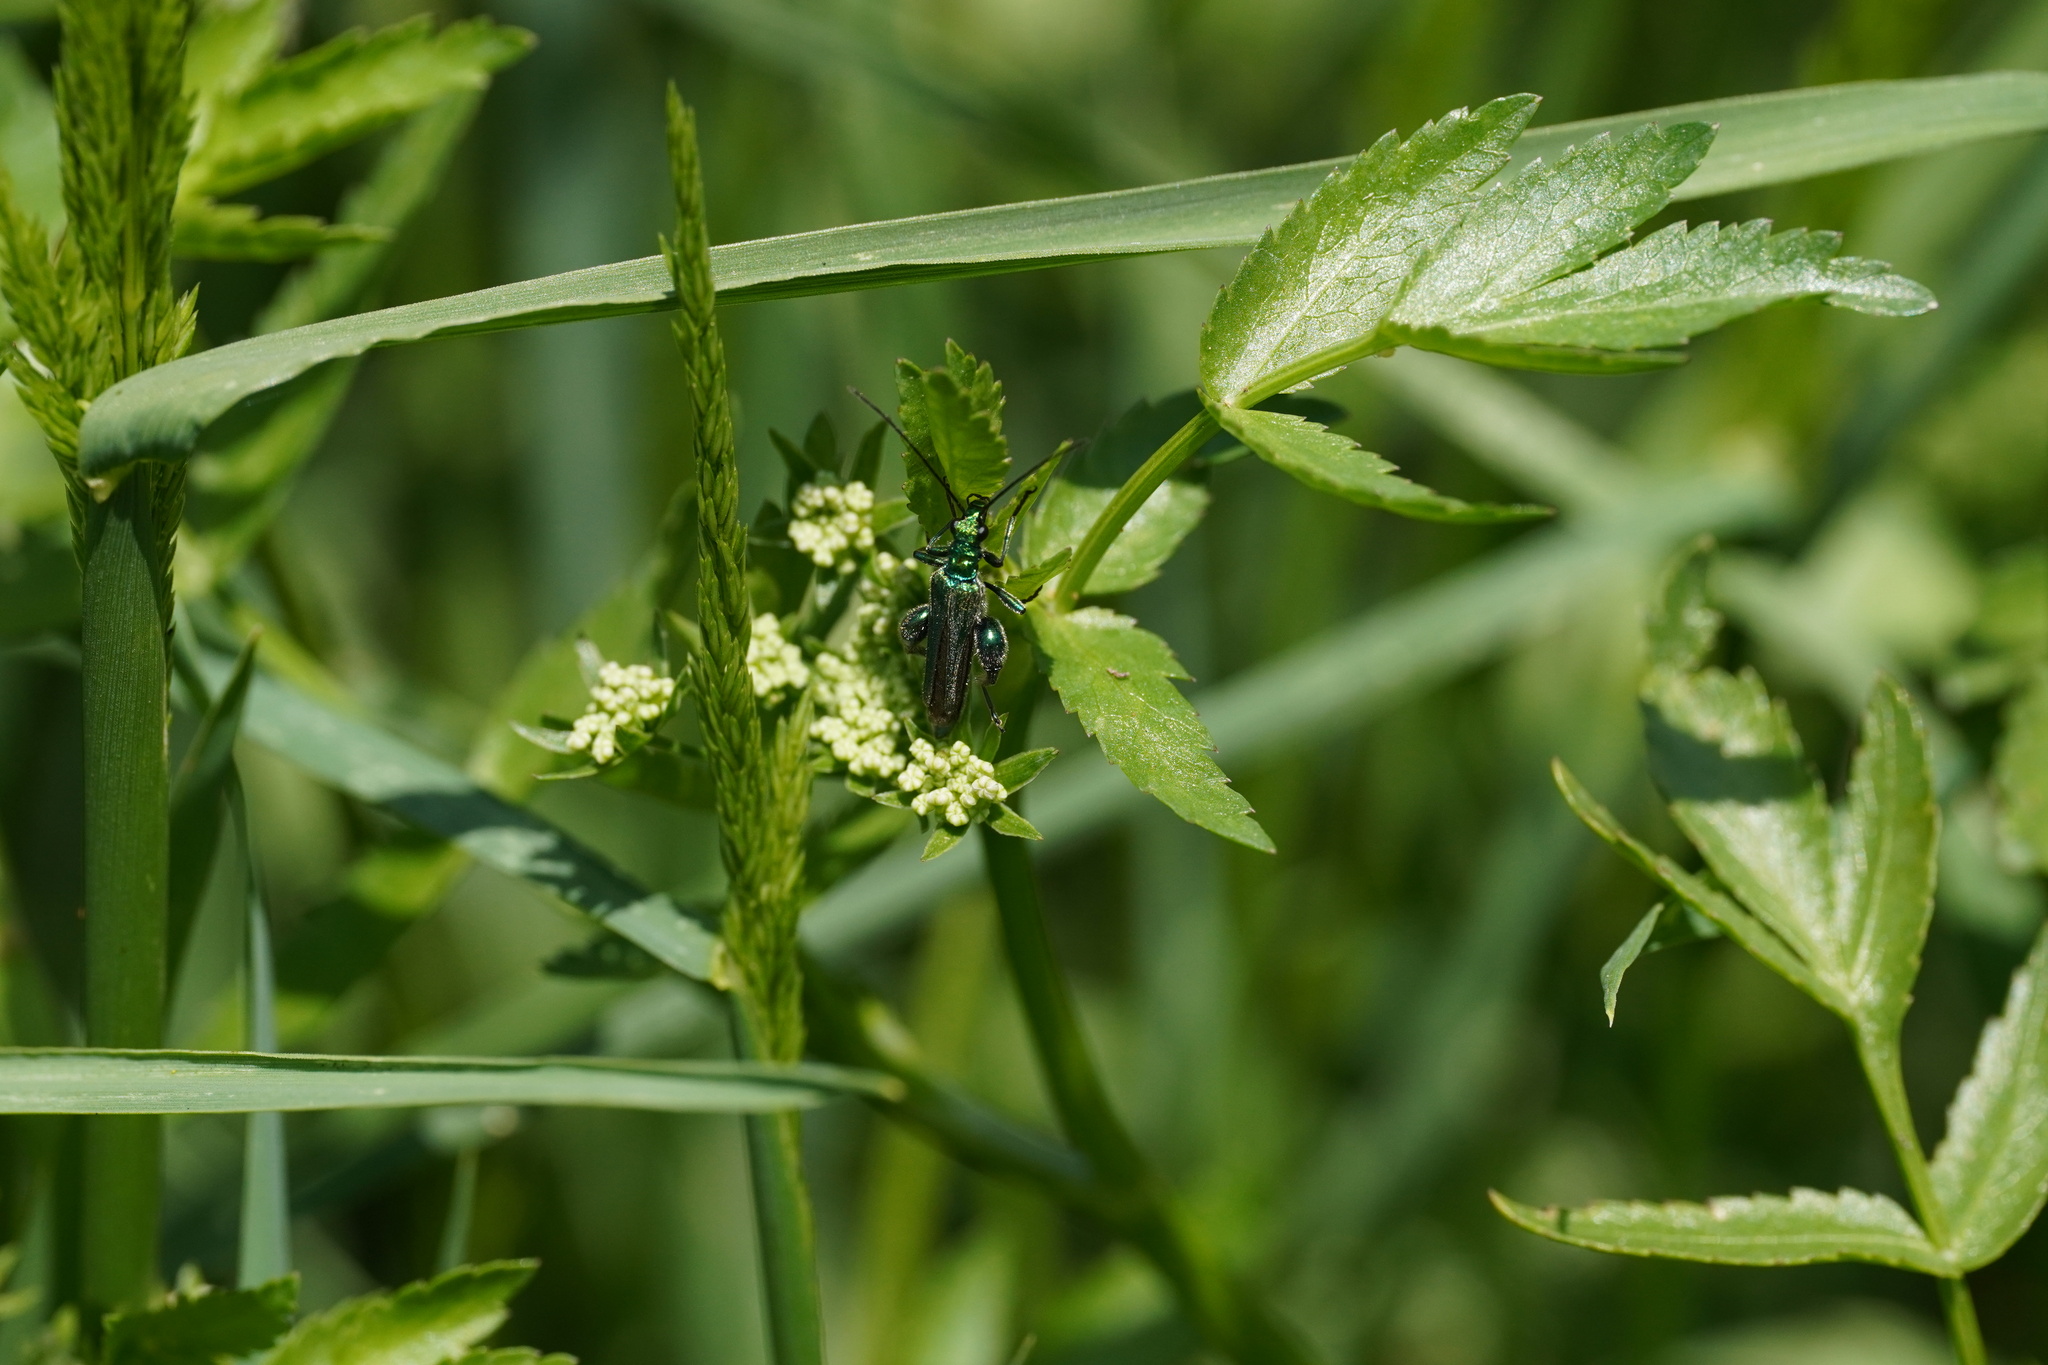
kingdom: Animalia
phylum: Arthropoda
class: Insecta
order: Coleoptera
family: Oedemeridae
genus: Oedemera
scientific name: Oedemera nobilis
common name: Swollen-thighed beetle
